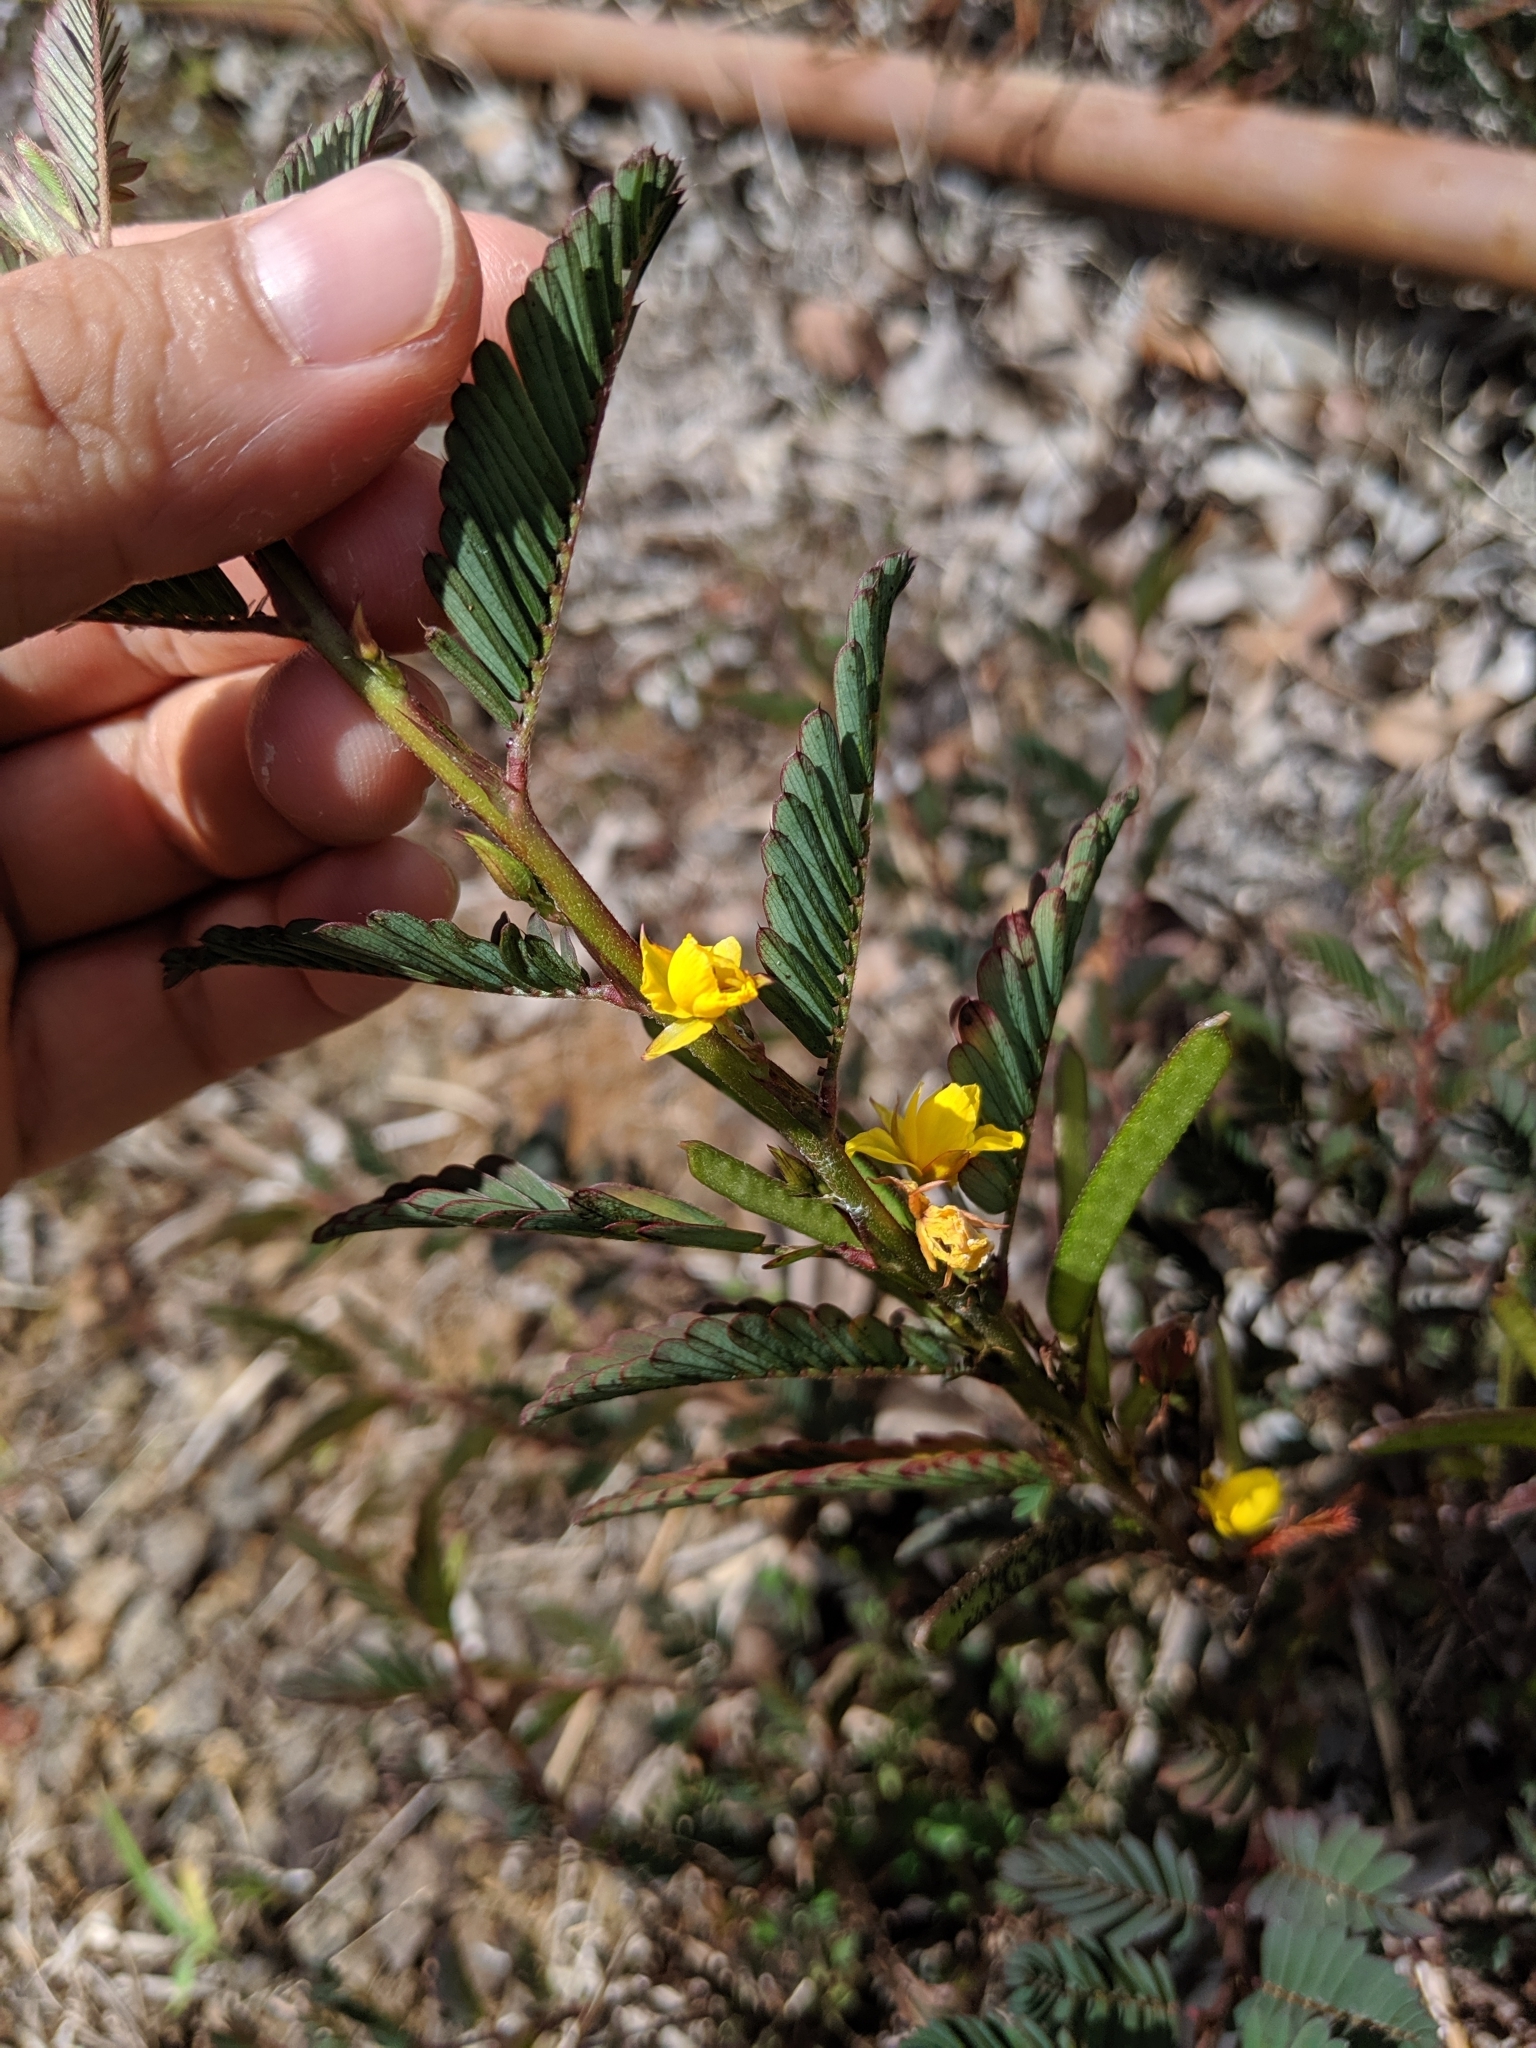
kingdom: Plantae
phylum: Tracheophyta
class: Magnoliopsida
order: Fabales
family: Fabaceae
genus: Chamaecrista
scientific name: Chamaecrista nictitans
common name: Sensitive cassia
